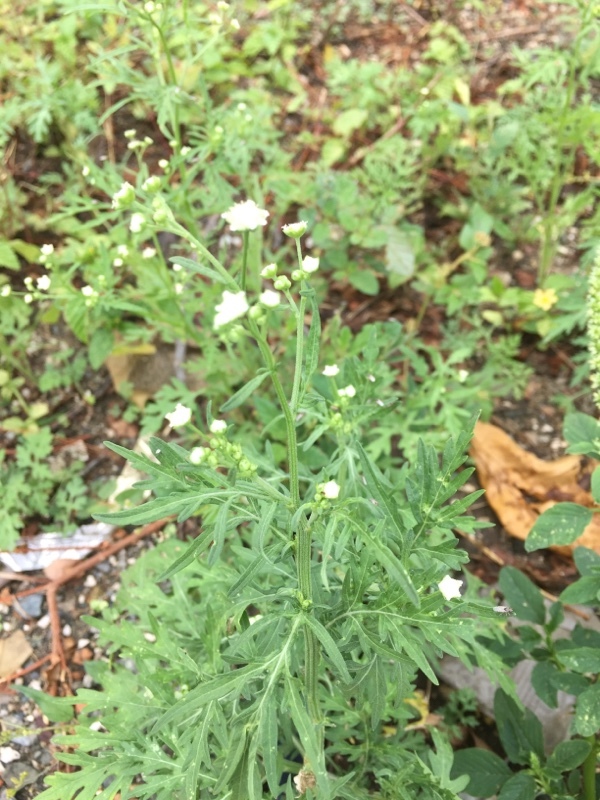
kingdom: Plantae
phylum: Tracheophyta
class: Magnoliopsida
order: Asterales
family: Asteraceae
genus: Parthenium
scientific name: Parthenium hysterophorus
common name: Santa maria feverfew
